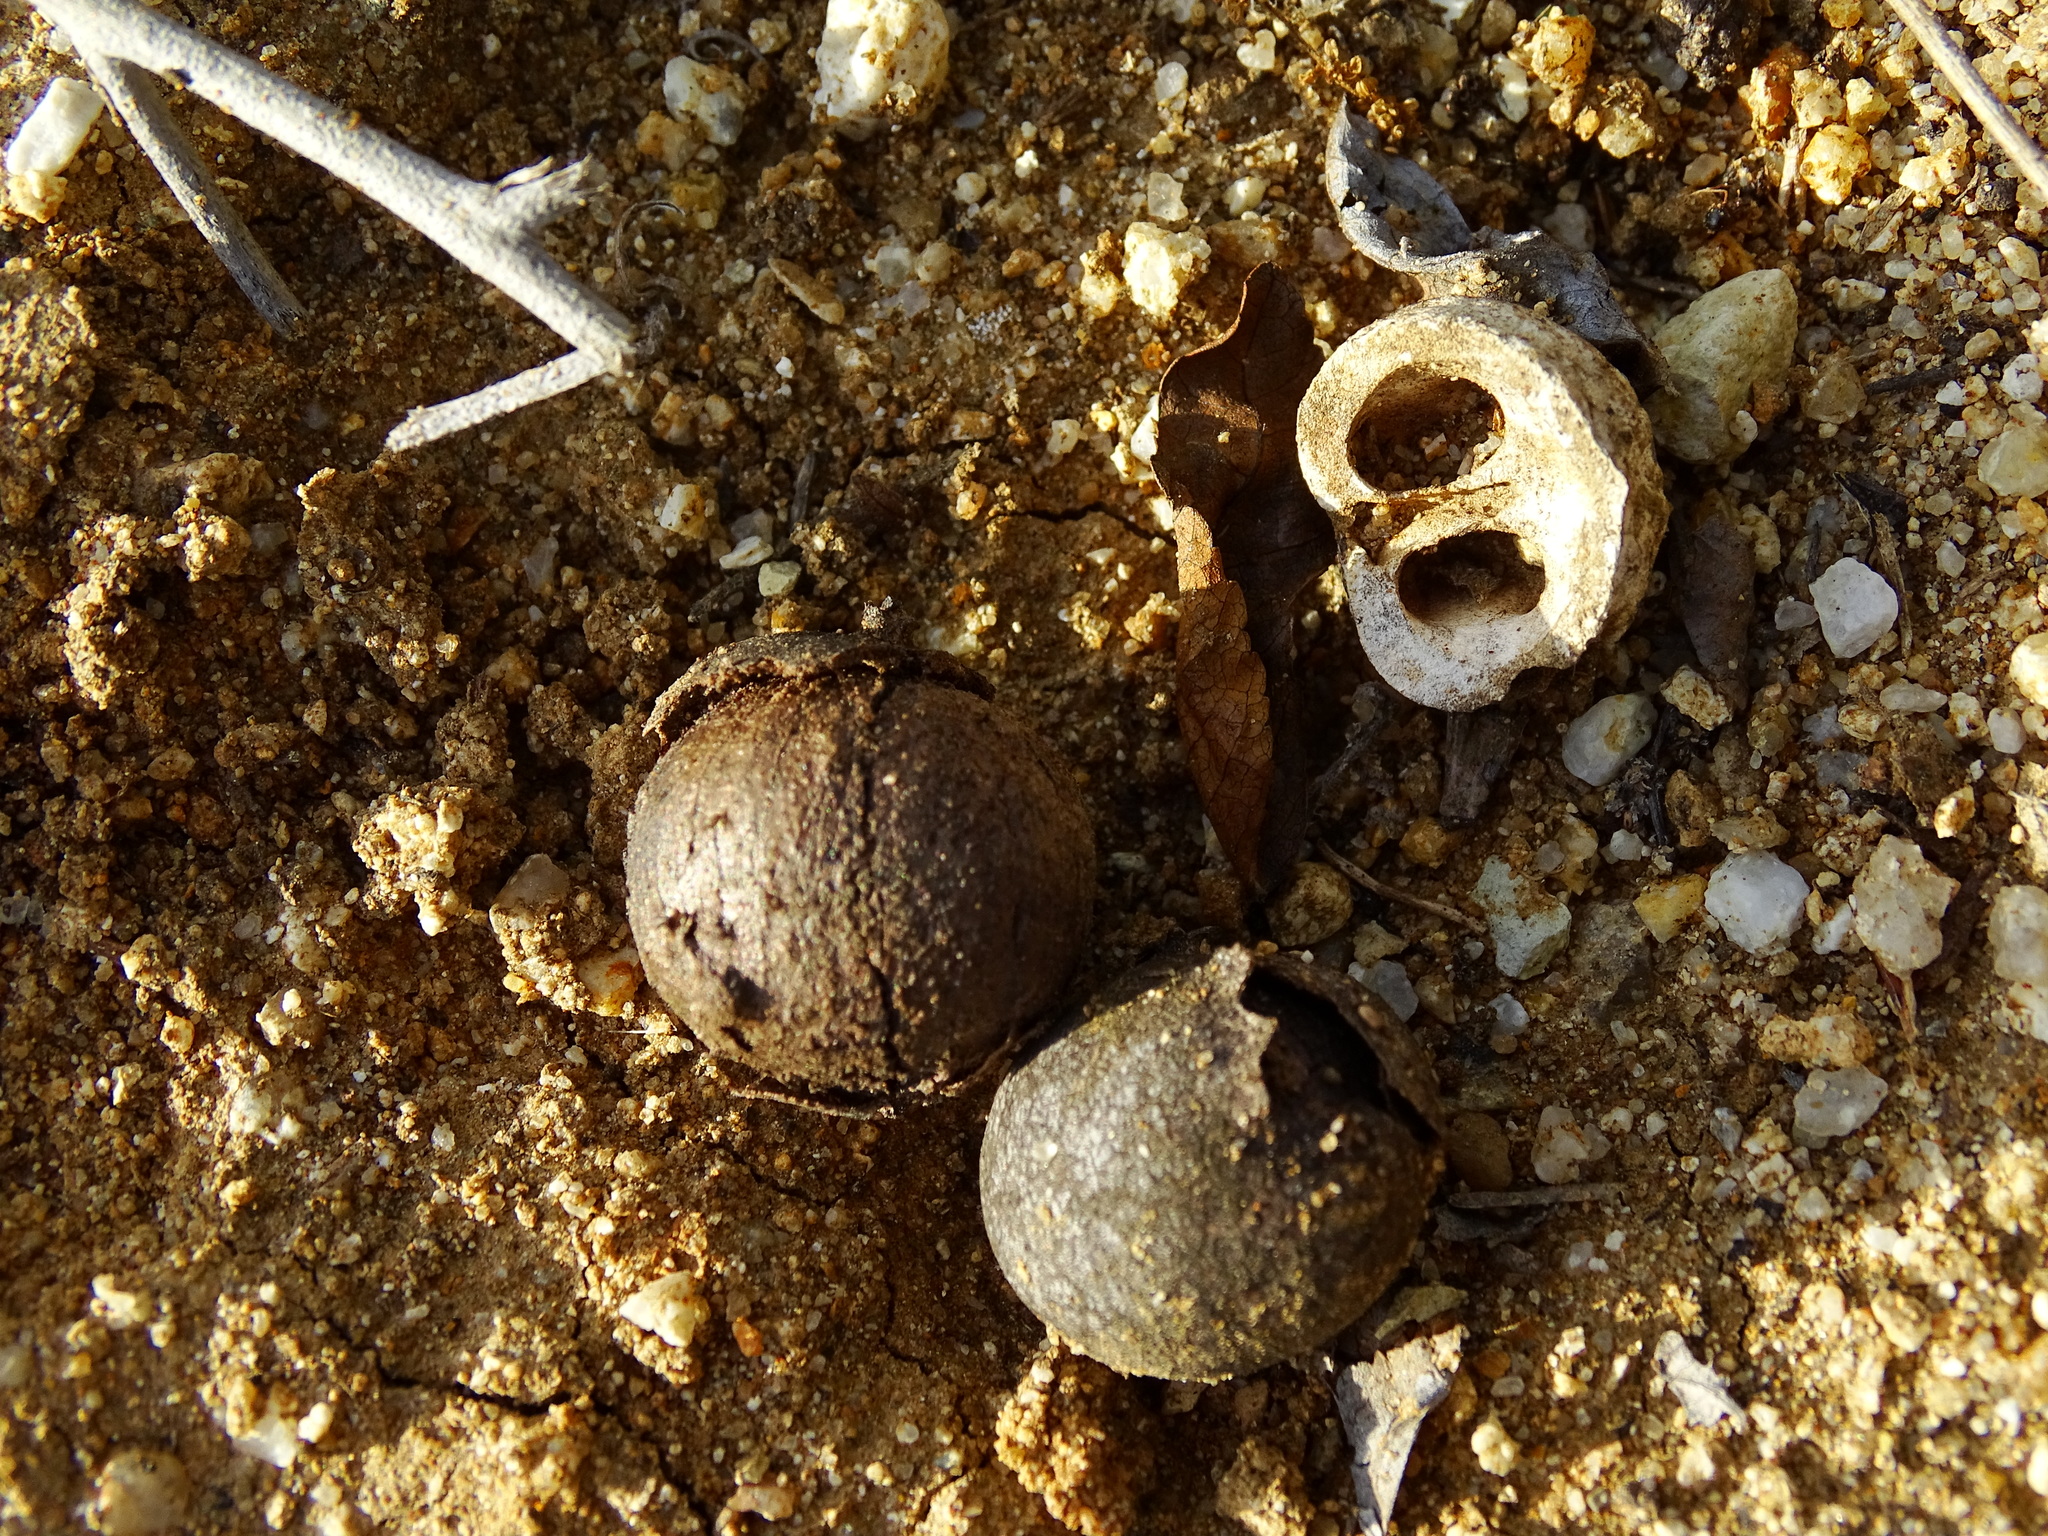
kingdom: Plantae
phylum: Tracheophyta
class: Magnoliopsida
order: Fagales
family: Juglandaceae
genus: Juglans
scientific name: Juglans californica
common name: Southern california black walnut
